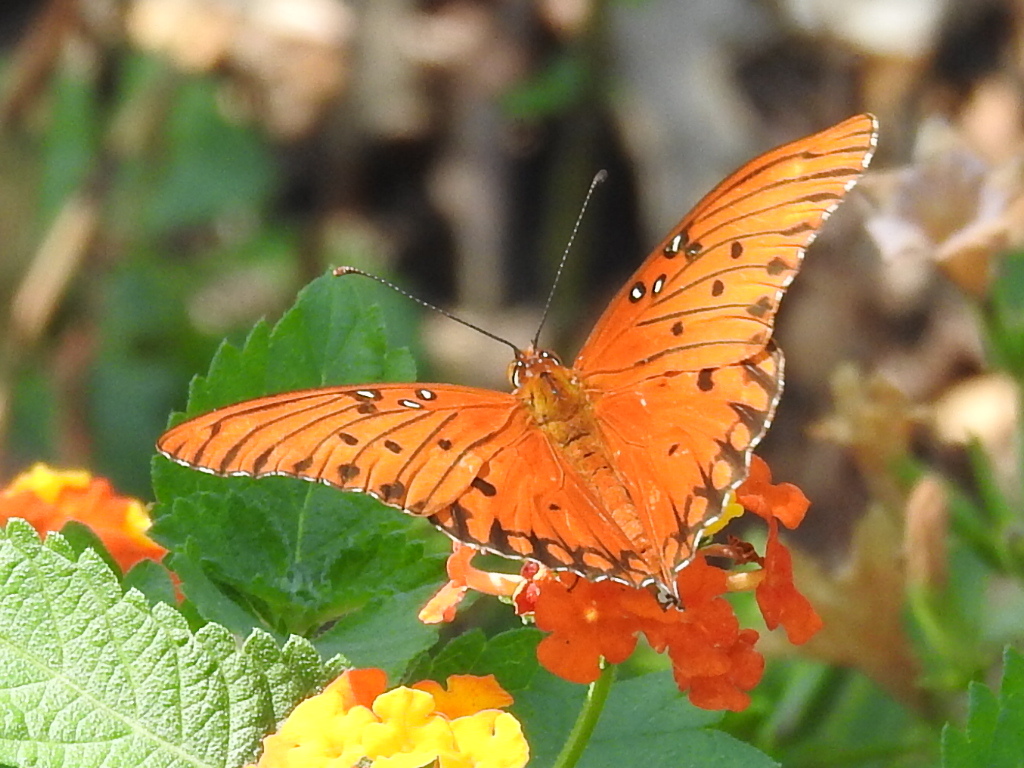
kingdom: Animalia
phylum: Arthropoda
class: Insecta
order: Lepidoptera
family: Nymphalidae
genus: Dione
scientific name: Dione vanillae
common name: Gulf fritillary
